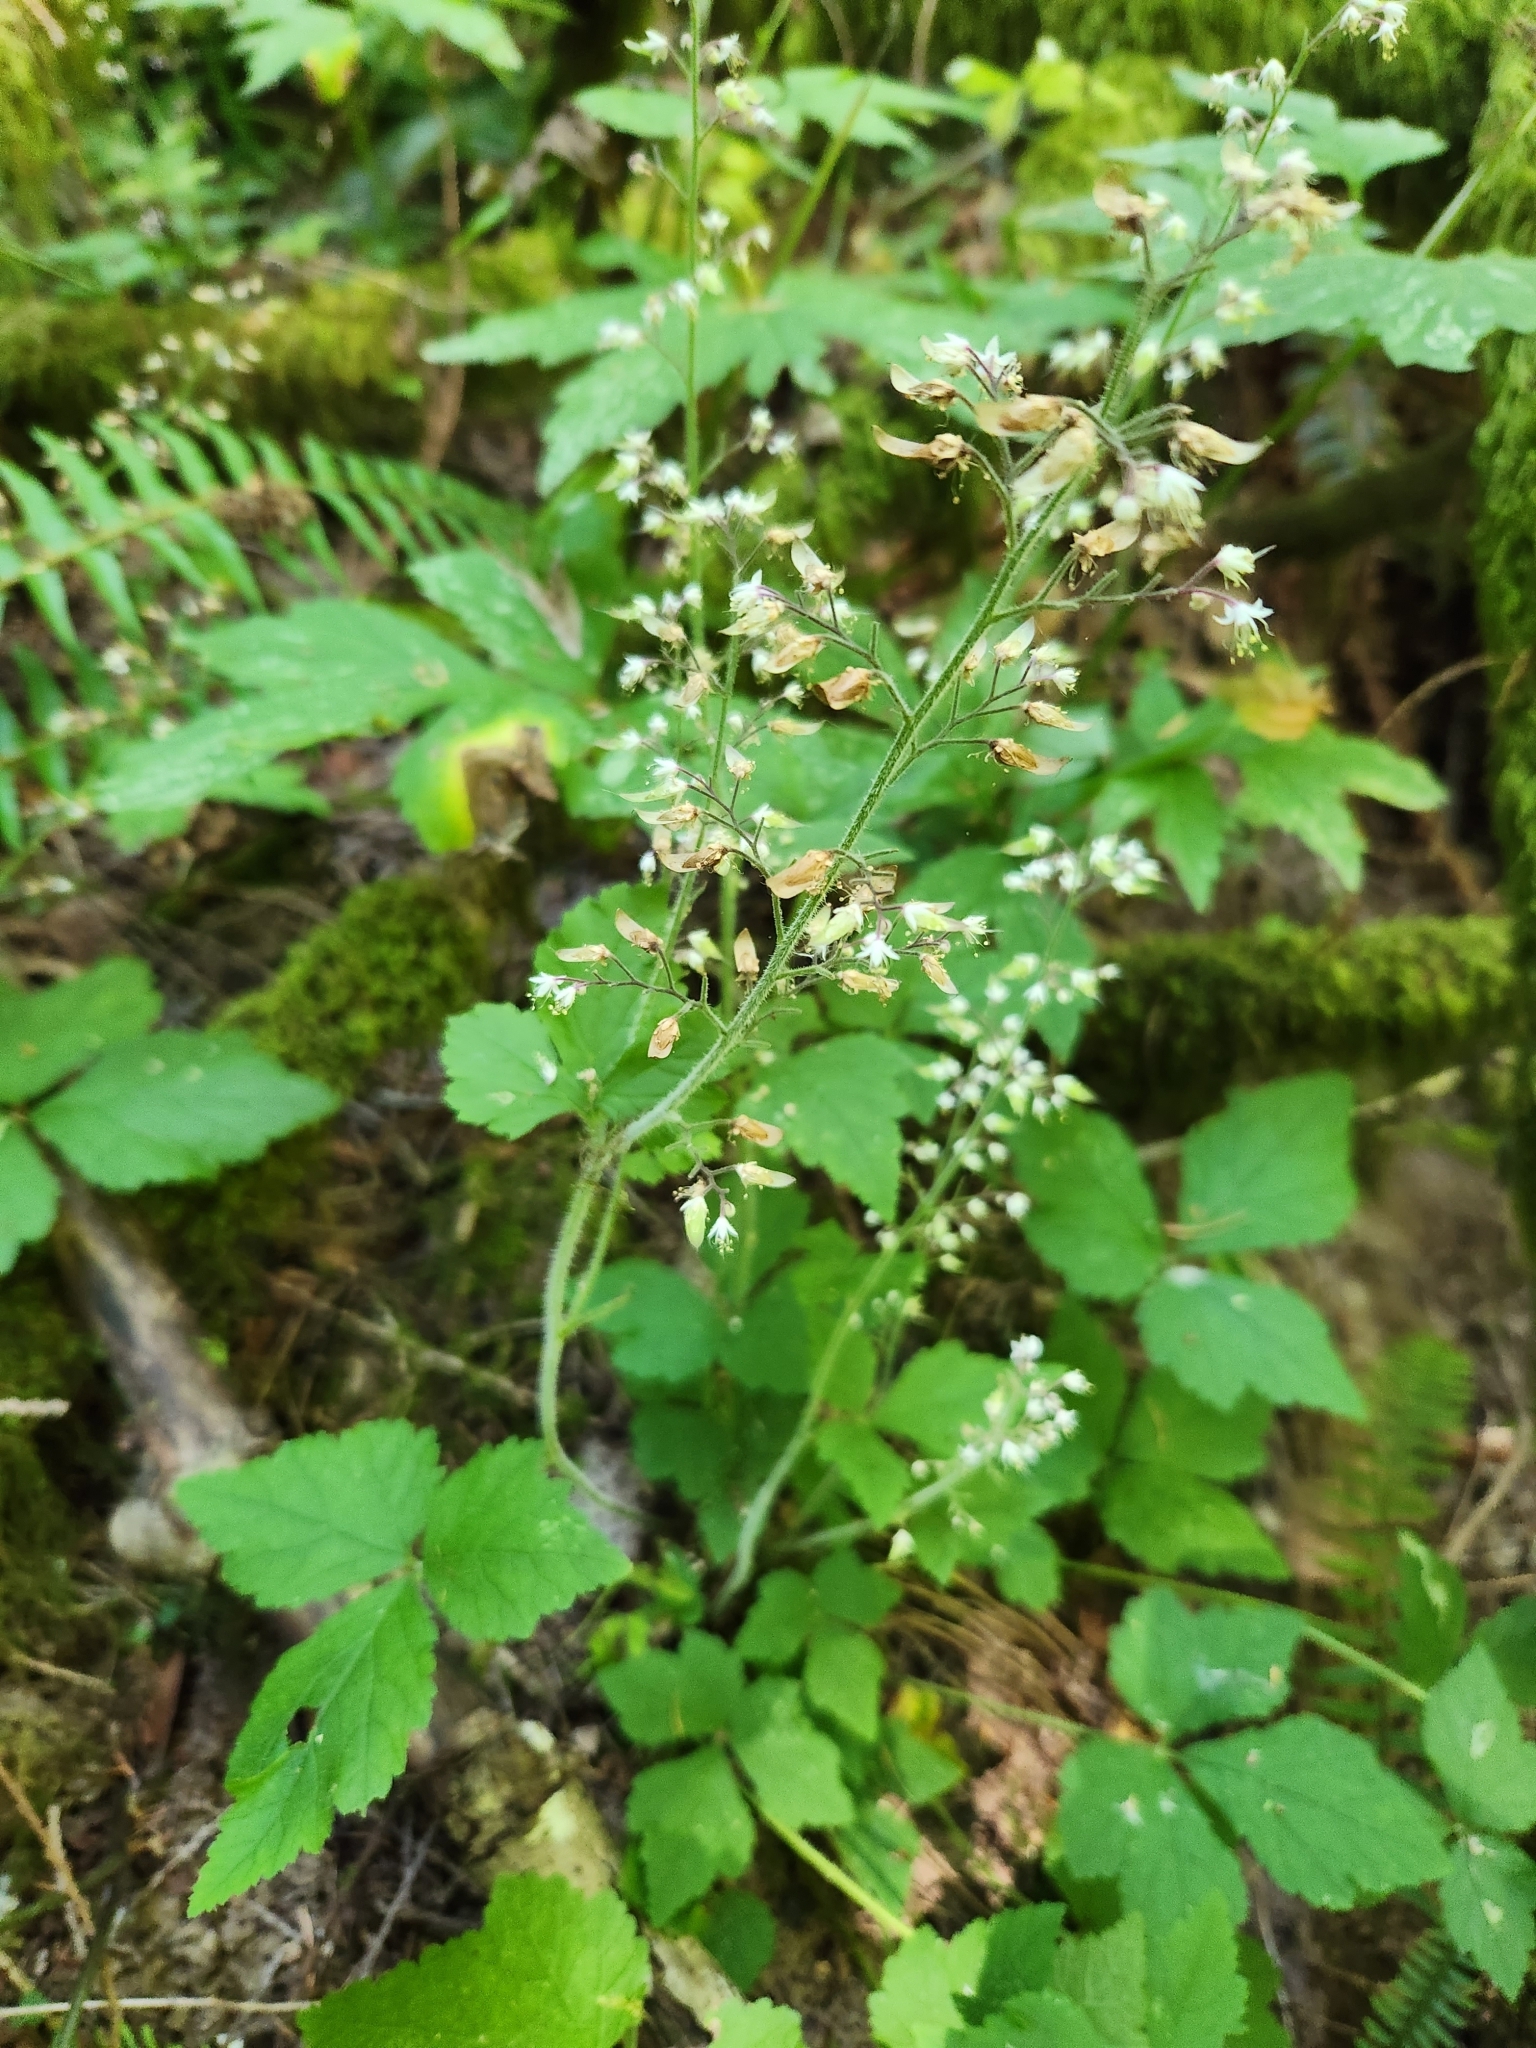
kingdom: Plantae
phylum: Tracheophyta
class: Magnoliopsida
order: Saxifragales
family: Saxifragaceae
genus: Tiarella
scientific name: Tiarella trifoliata
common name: Sugar-scoop
